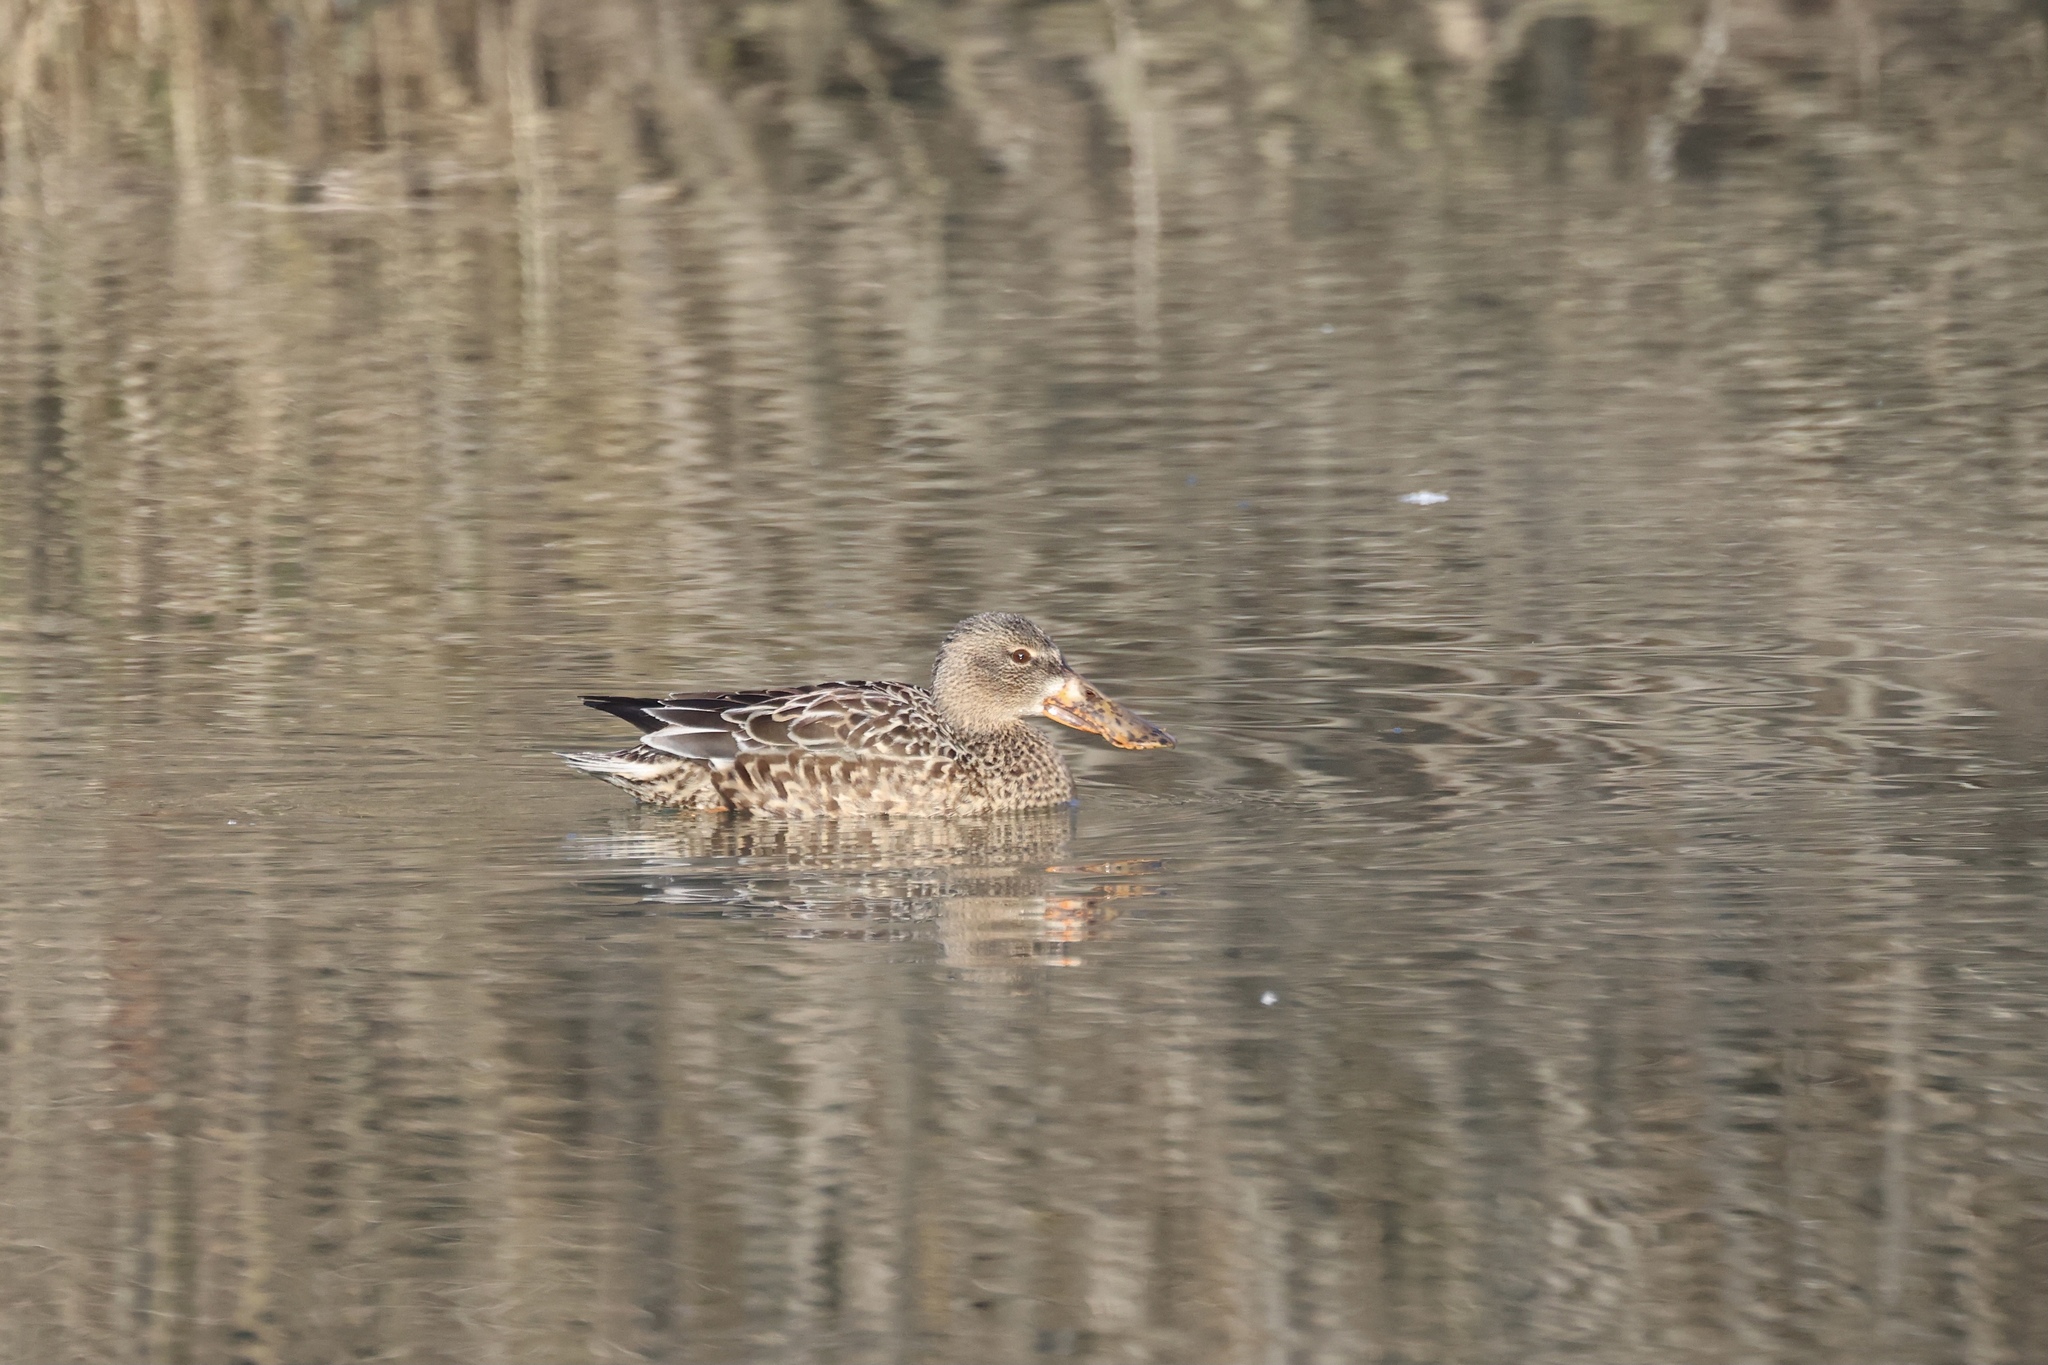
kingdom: Animalia
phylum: Chordata
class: Aves
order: Anseriformes
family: Anatidae
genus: Spatula
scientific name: Spatula clypeata
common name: Northern shoveler
